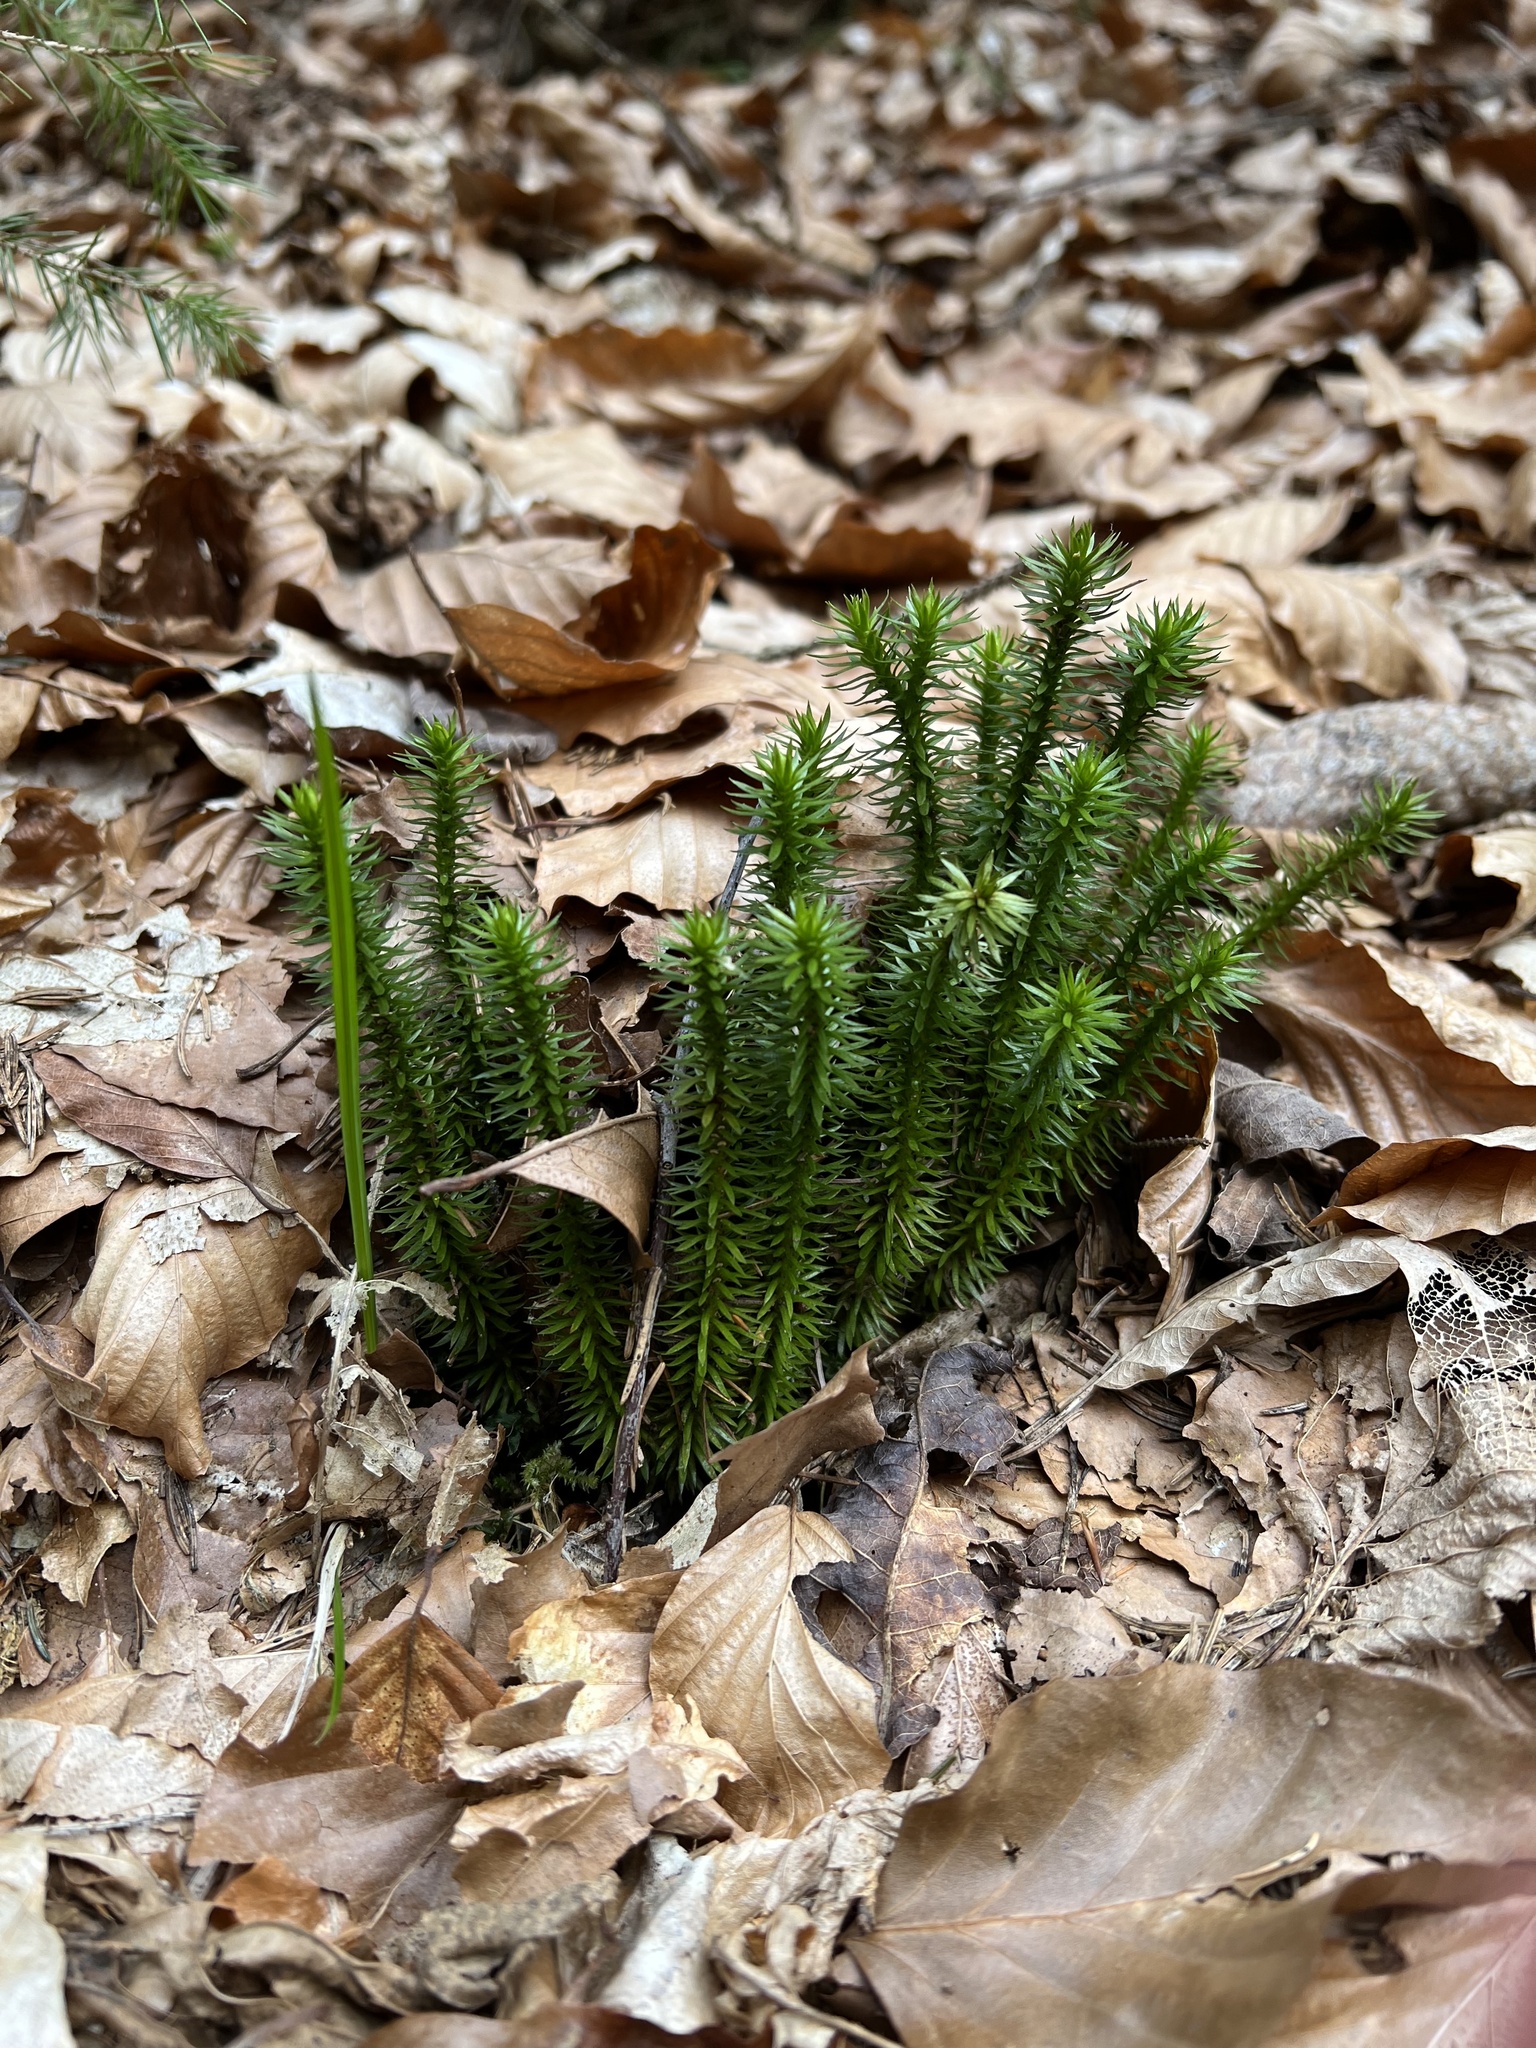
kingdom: Plantae
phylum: Tracheophyta
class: Lycopodiopsida
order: Lycopodiales
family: Lycopodiaceae
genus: Huperzia
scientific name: Huperzia selago
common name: Northern firmoss
